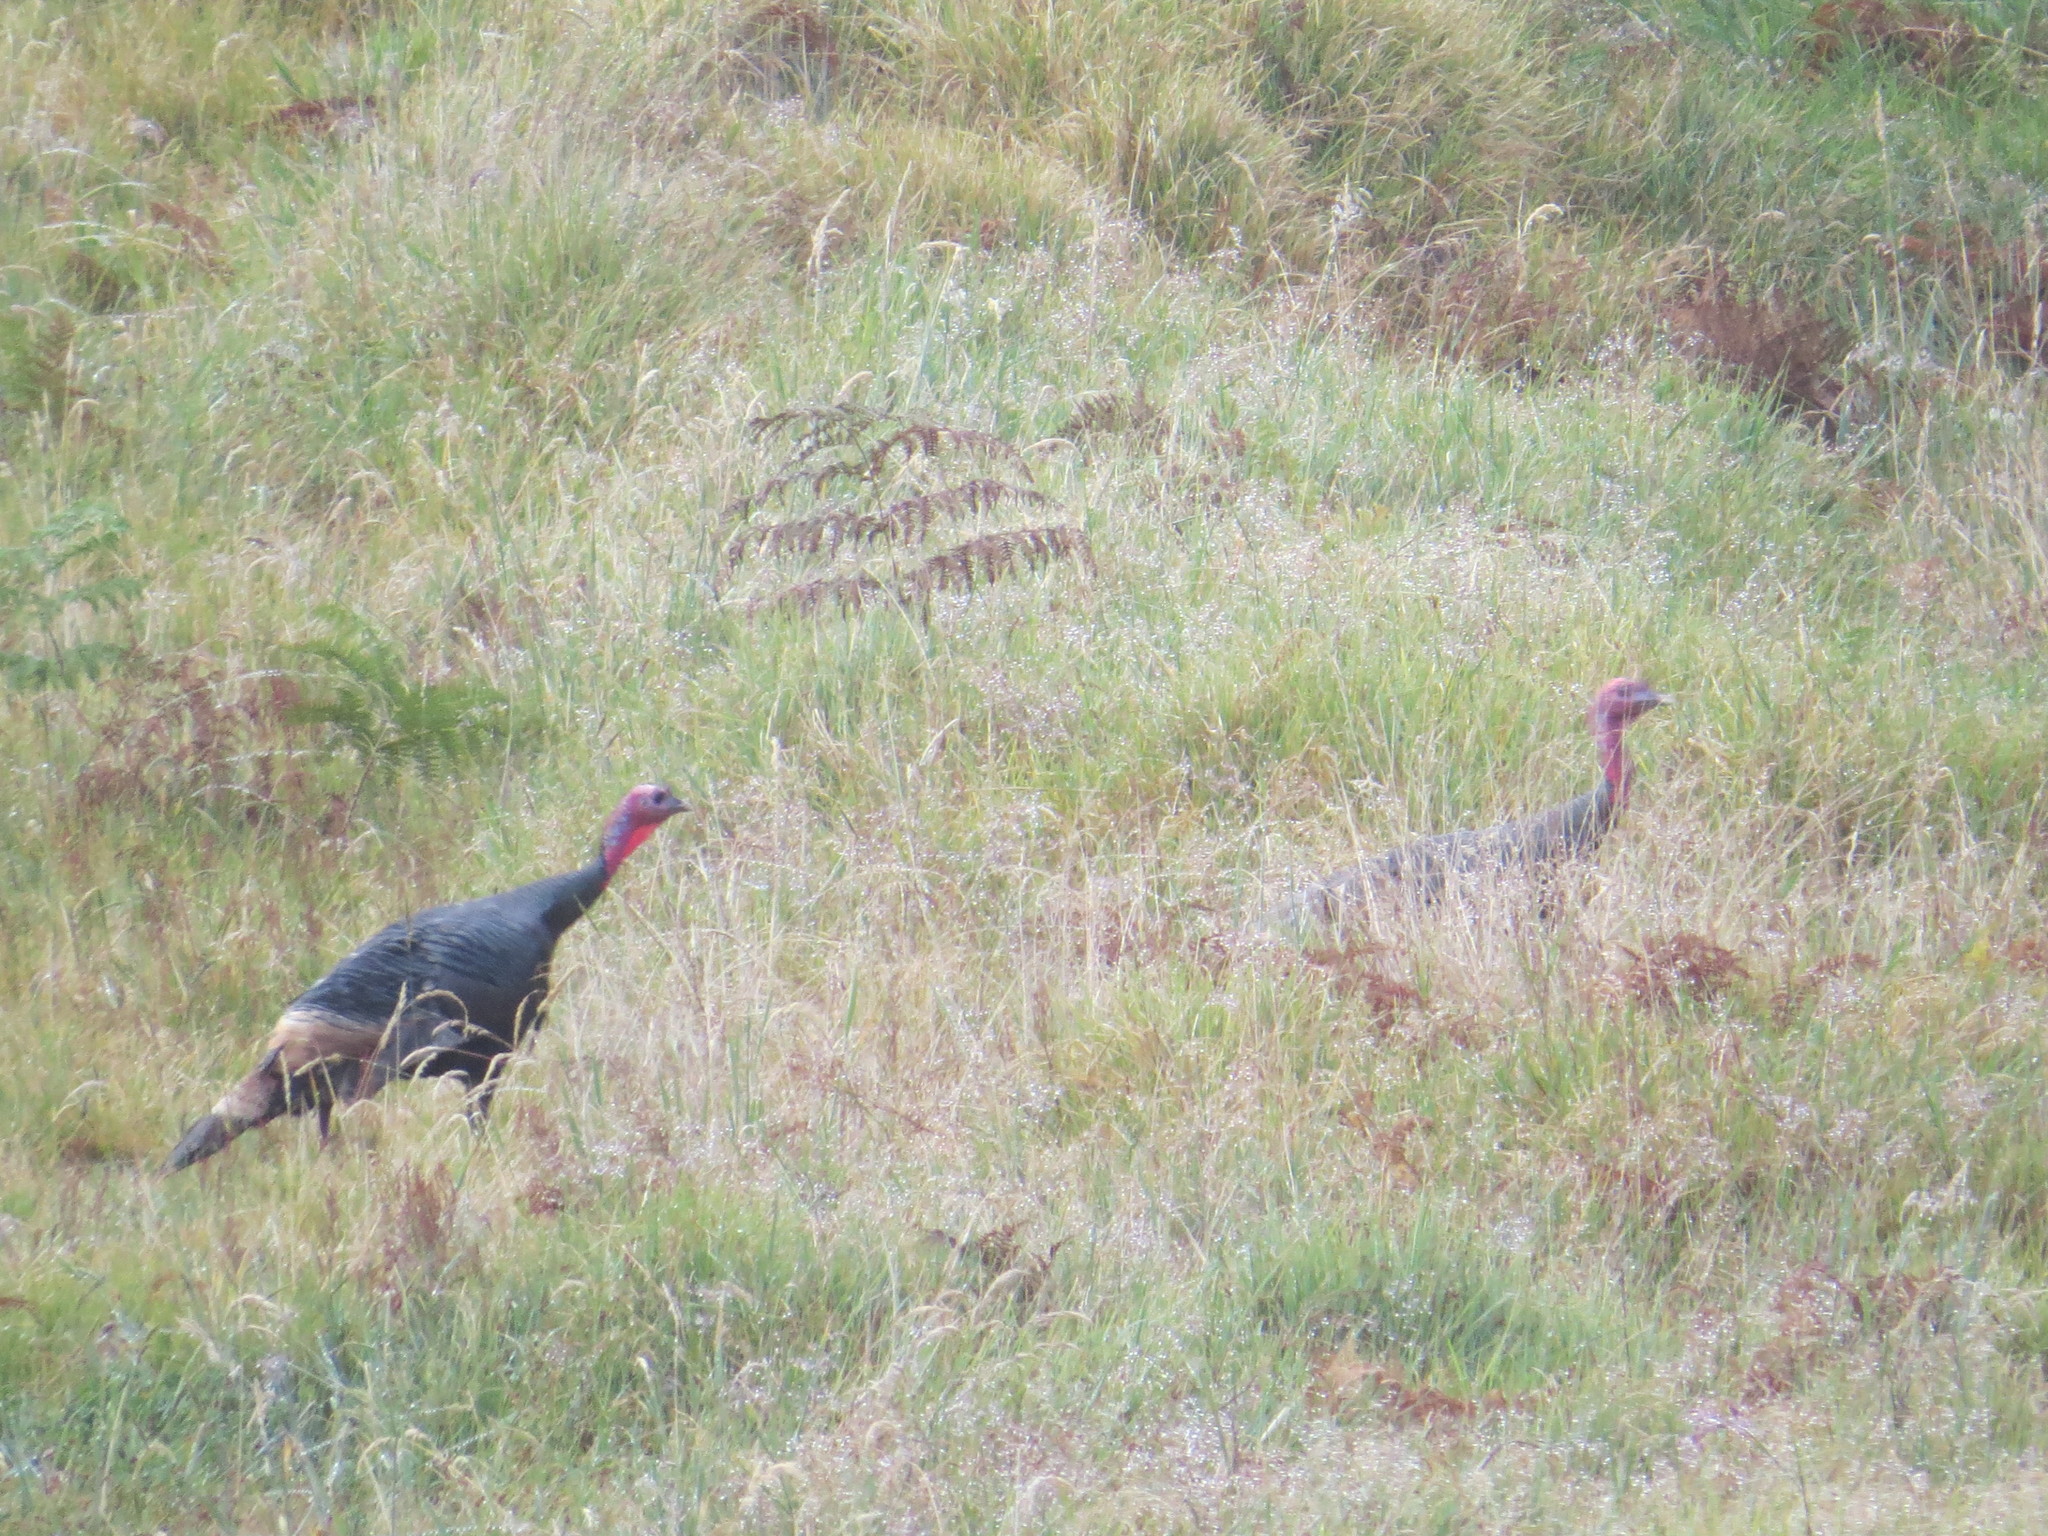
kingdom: Animalia
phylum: Chordata
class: Aves
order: Galliformes
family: Phasianidae
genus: Meleagris
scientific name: Meleagris gallopavo
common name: Wild turkey
